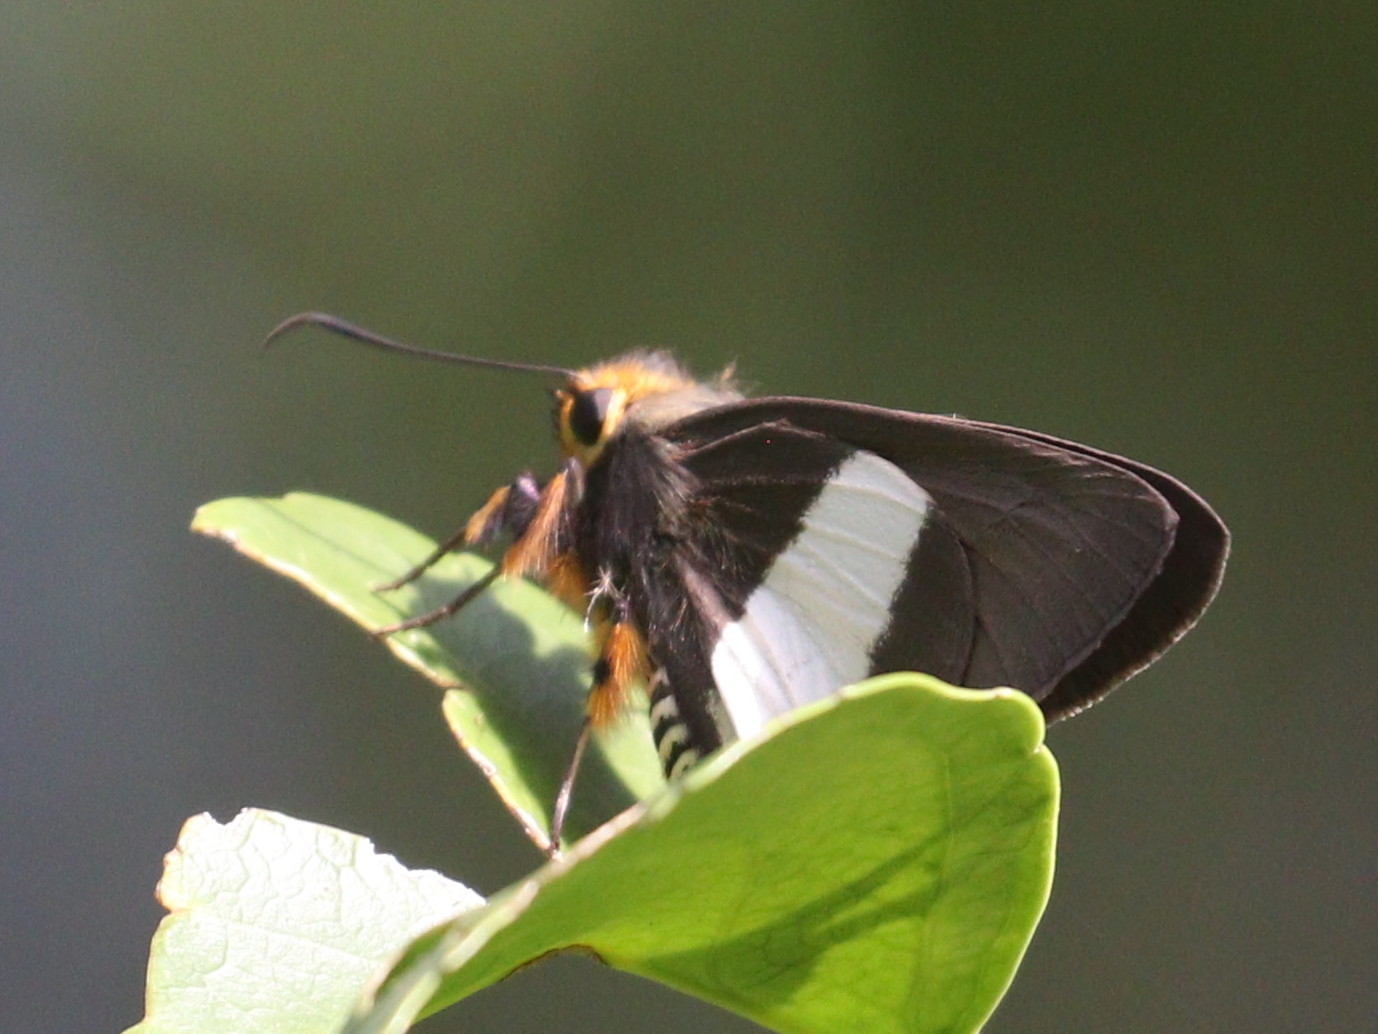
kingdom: Animalia
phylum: Arthropoda
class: Insecta
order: Lepidoptera
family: Hesperiidae
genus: Coeliades
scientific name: Coeliades forestan
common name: Striped policeman
